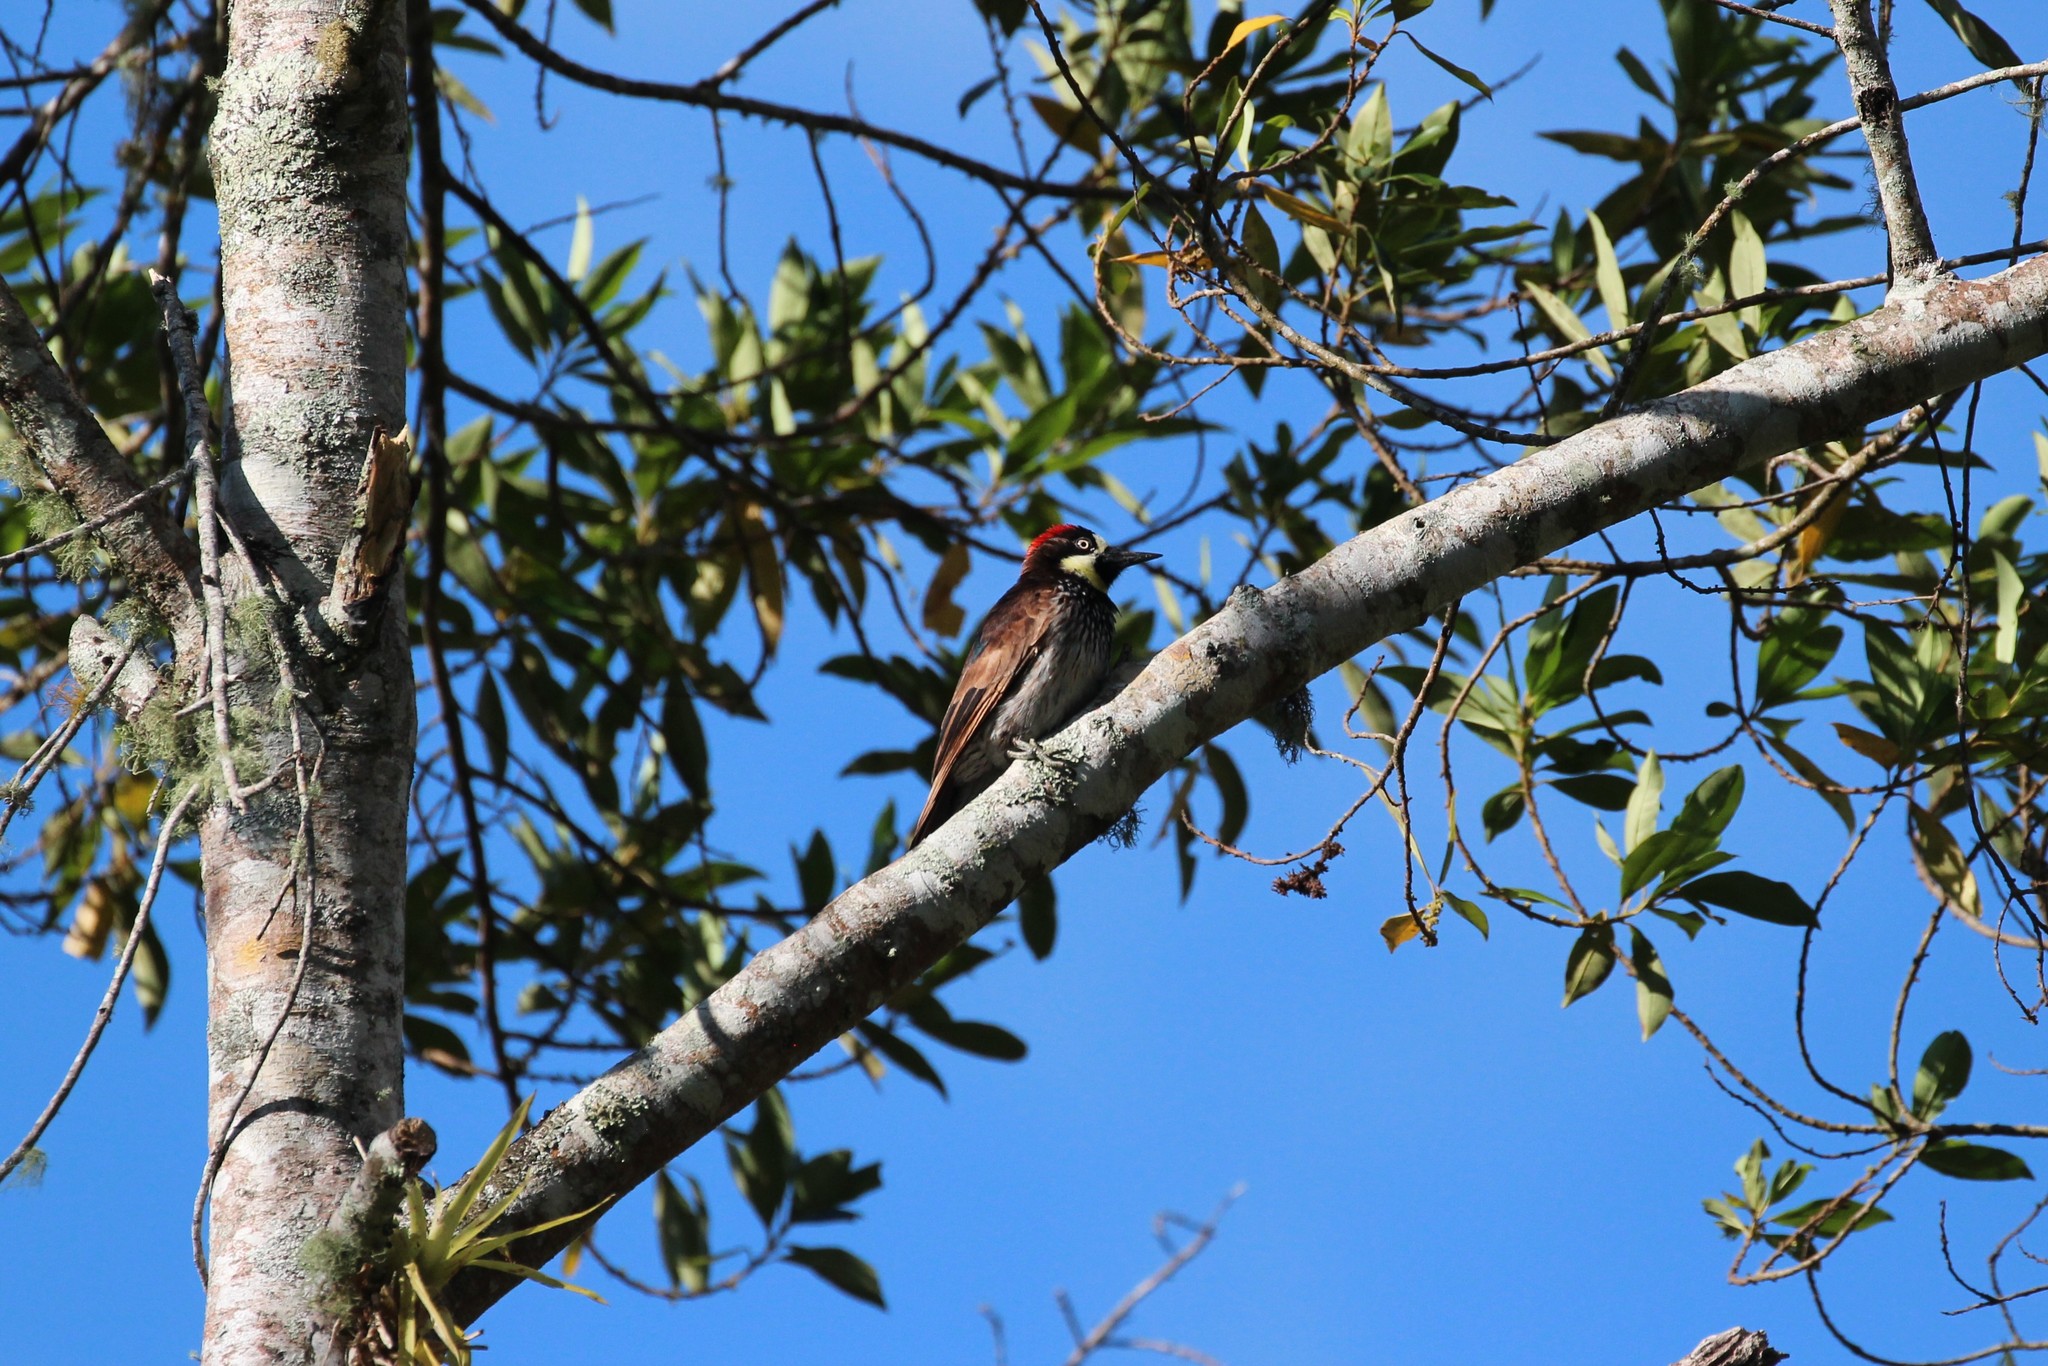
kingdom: Animalia
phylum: Chordata
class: Aves
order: Piciformes
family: Picidae
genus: Melanerpes
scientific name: Melanerpes formicivorus
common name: Acorn woodpecker
